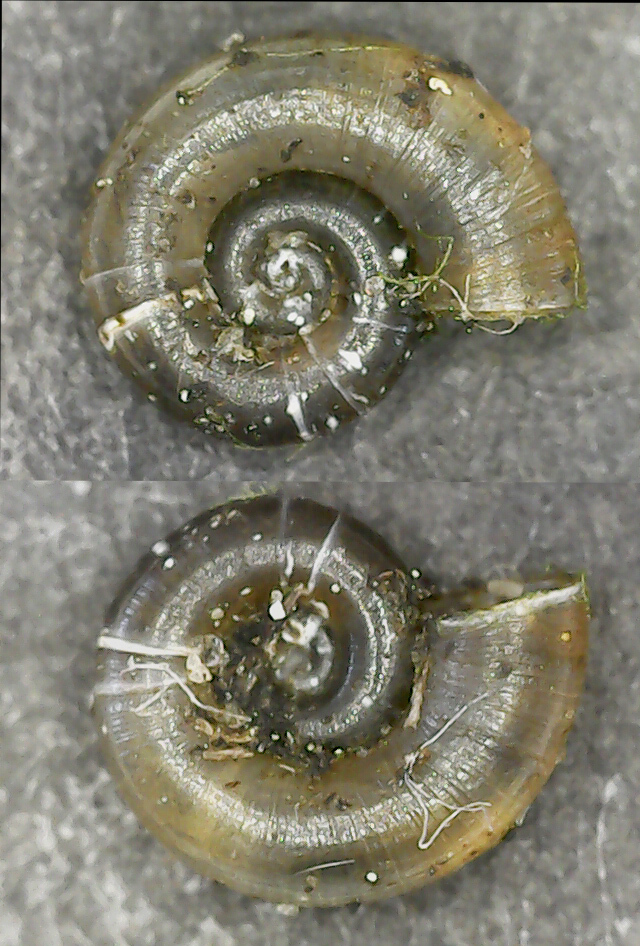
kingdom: Animalia
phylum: Mollusca
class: Gastropoda
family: Valvatidae
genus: Valvata
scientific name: Valvata cristata
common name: Flat valve snail
